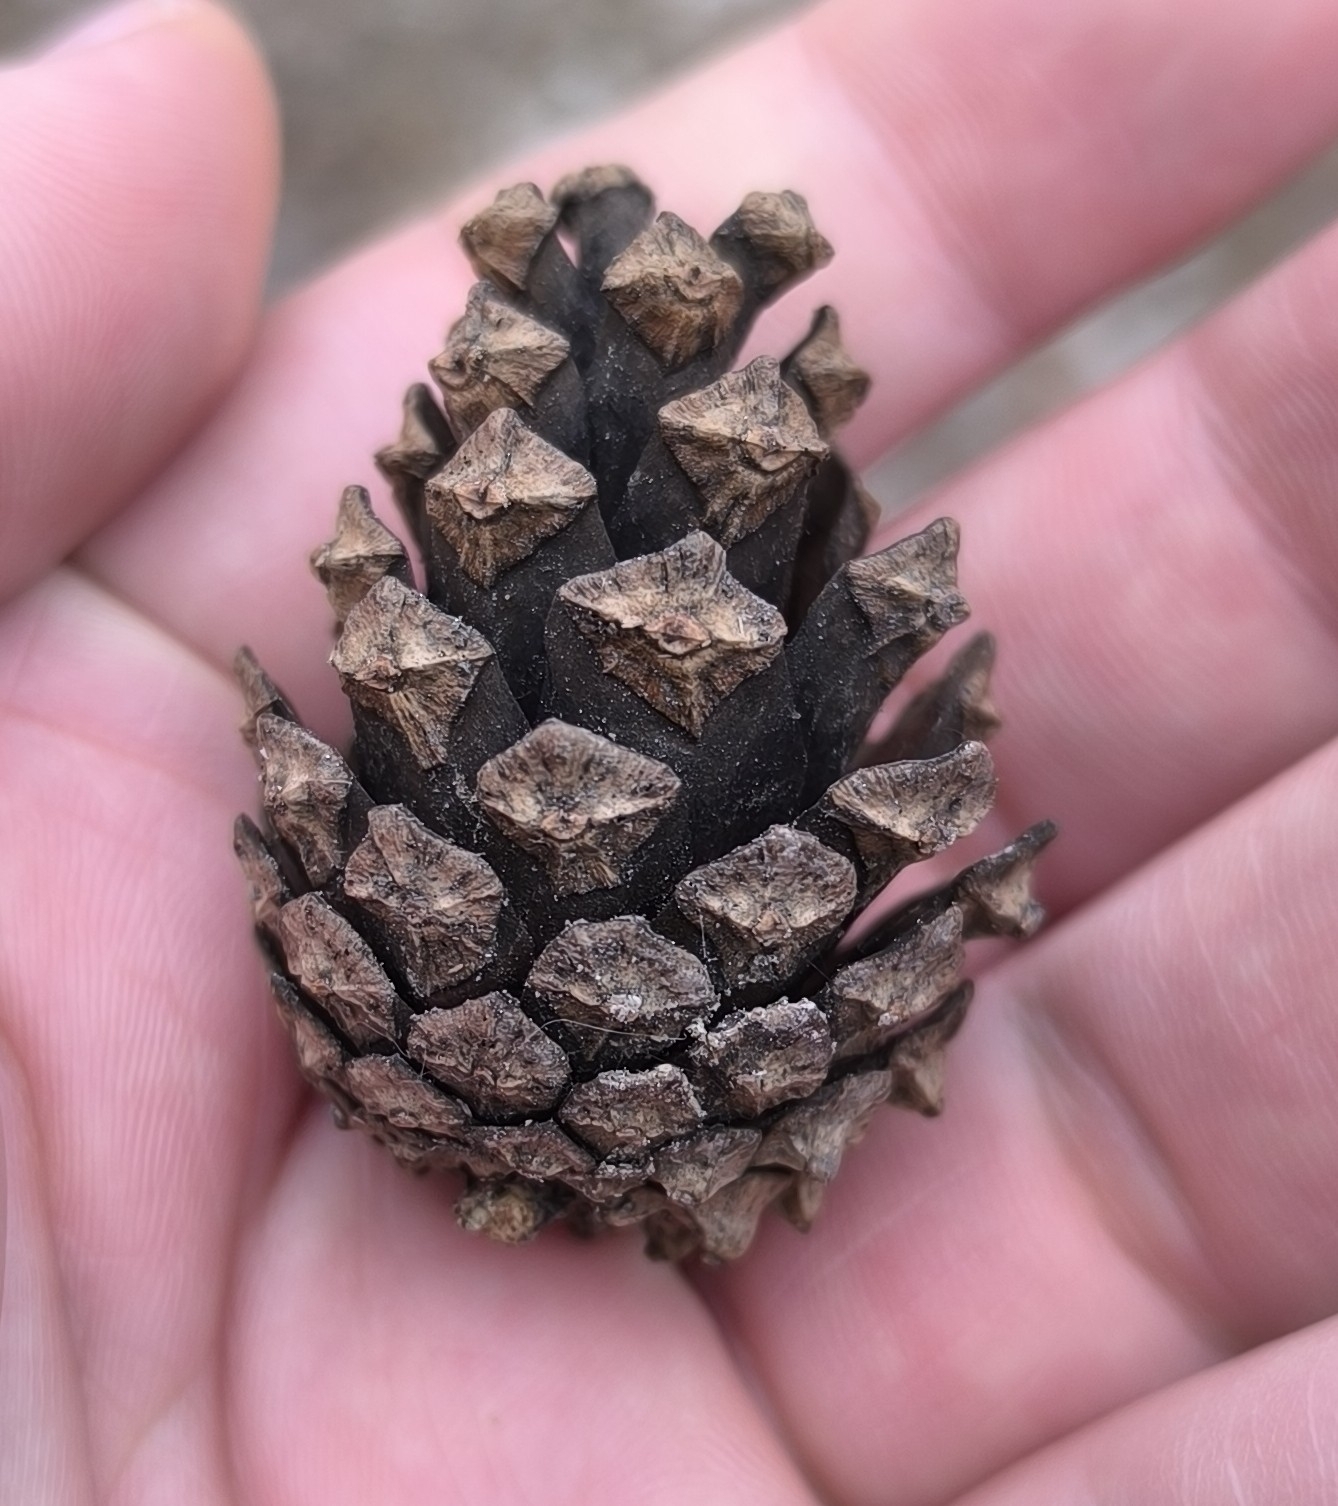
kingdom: Plantae
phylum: Tracheophyta
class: Pinopsida
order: Pinales
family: Pinaceae
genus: Pinus
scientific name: Pinus sylvestris
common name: Scots pine
